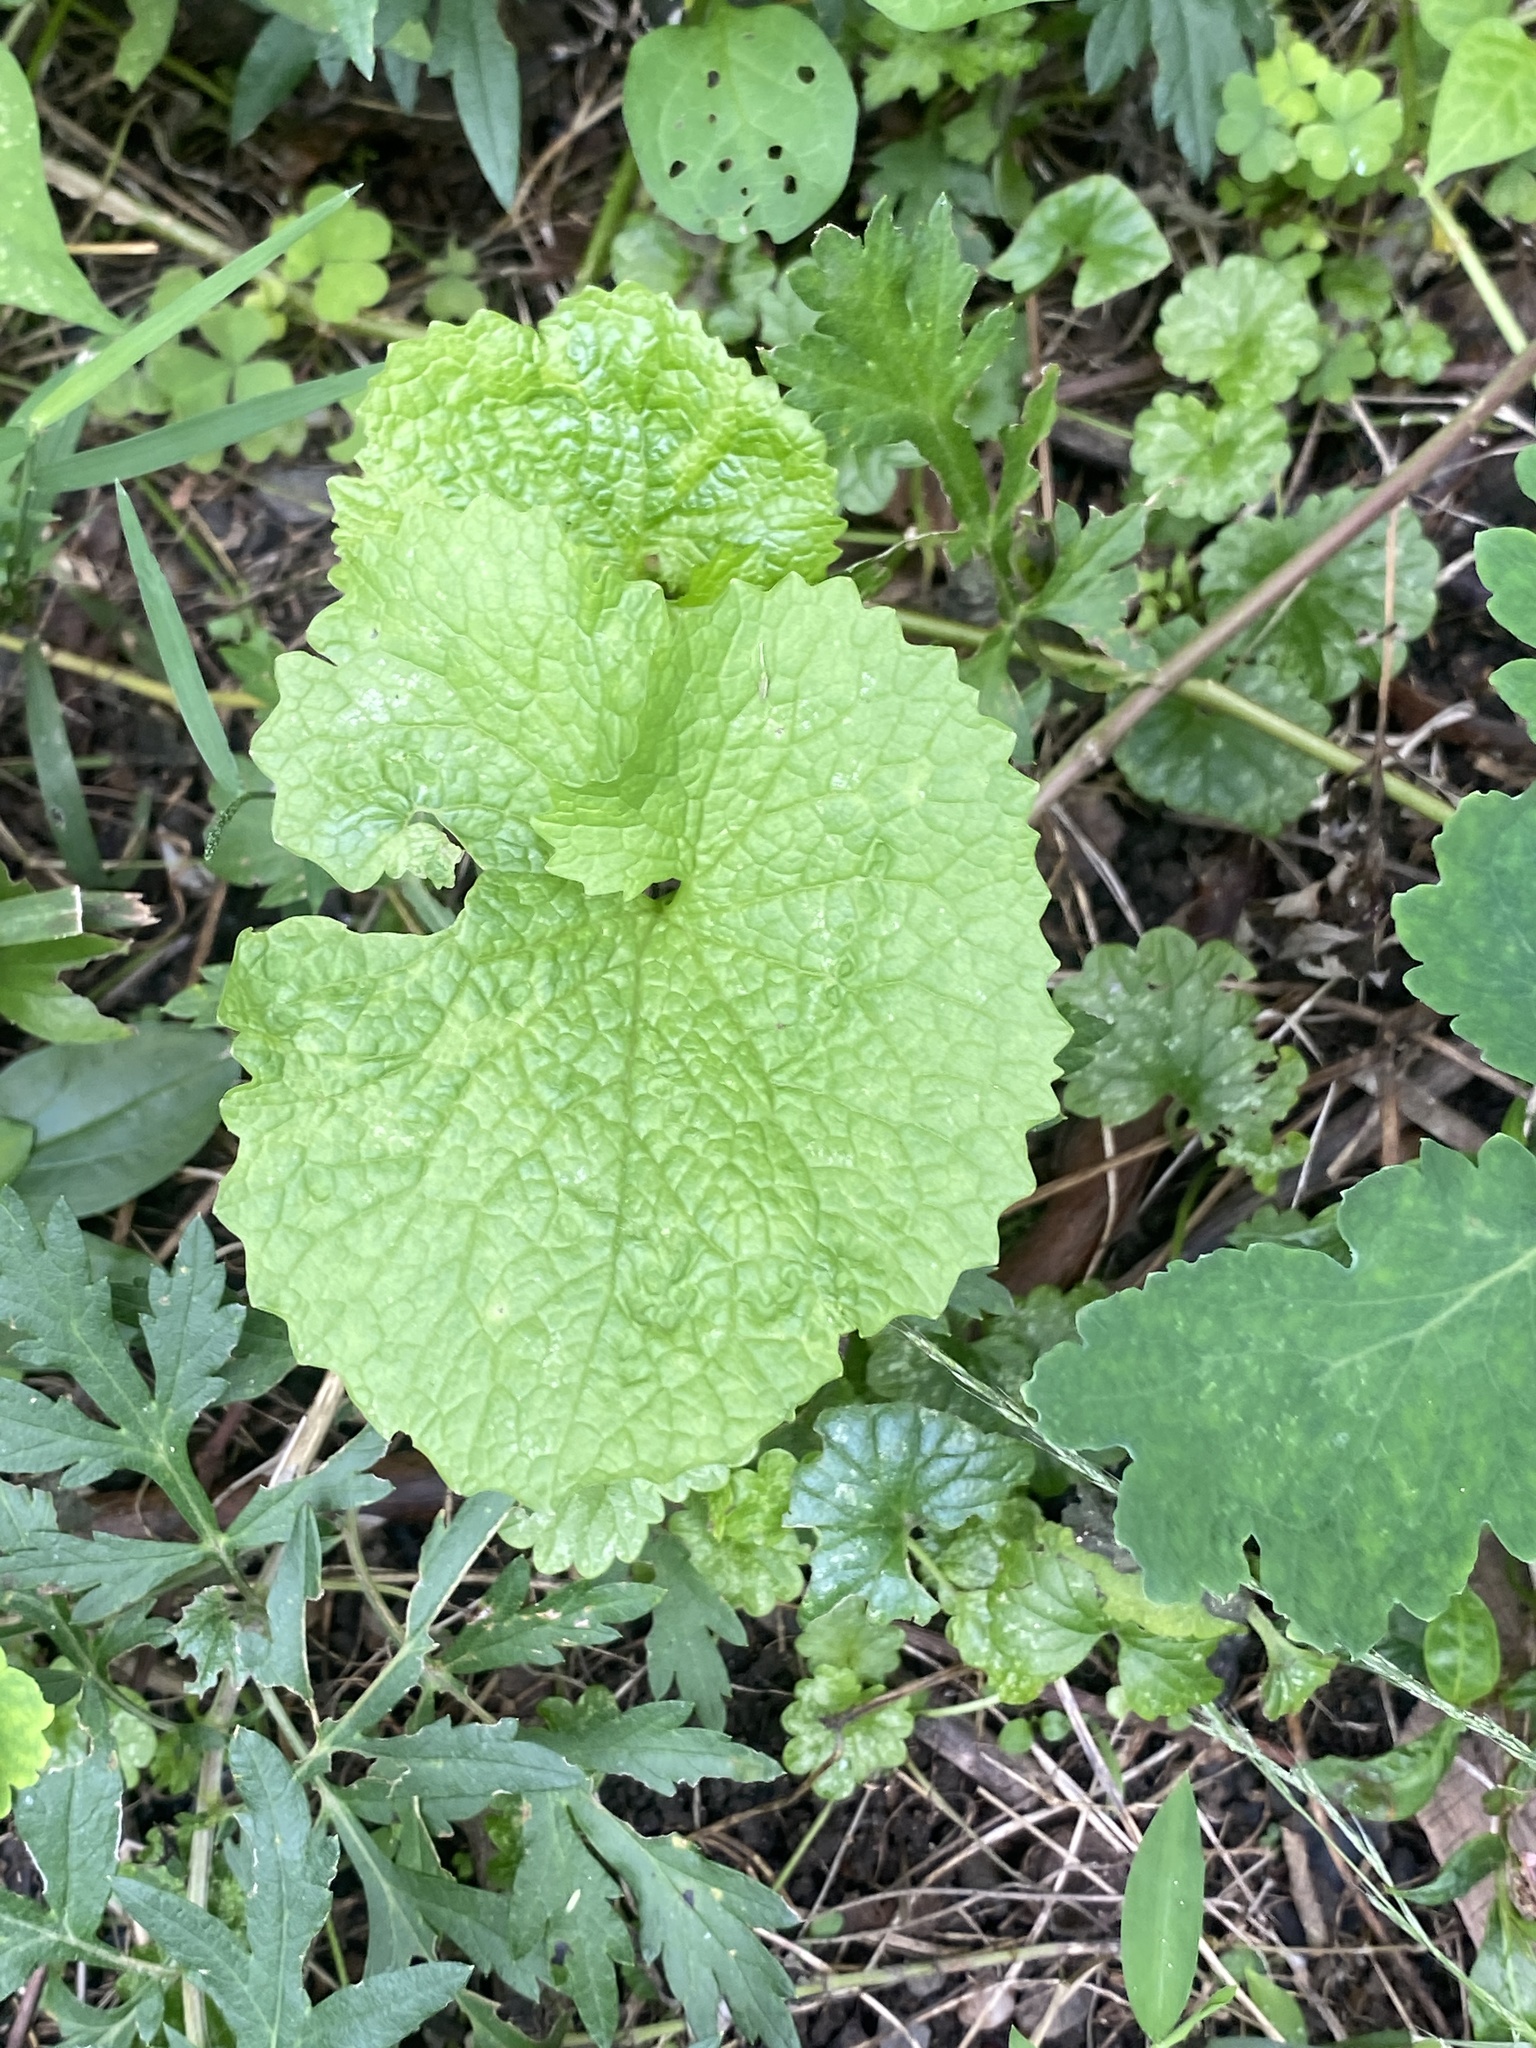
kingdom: Plantae
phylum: Tracheophyta
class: Magnoliopsida
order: Brassicales
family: Brassicaceae
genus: Alliaria
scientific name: Alliaria petiolata
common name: Garlic mustard
